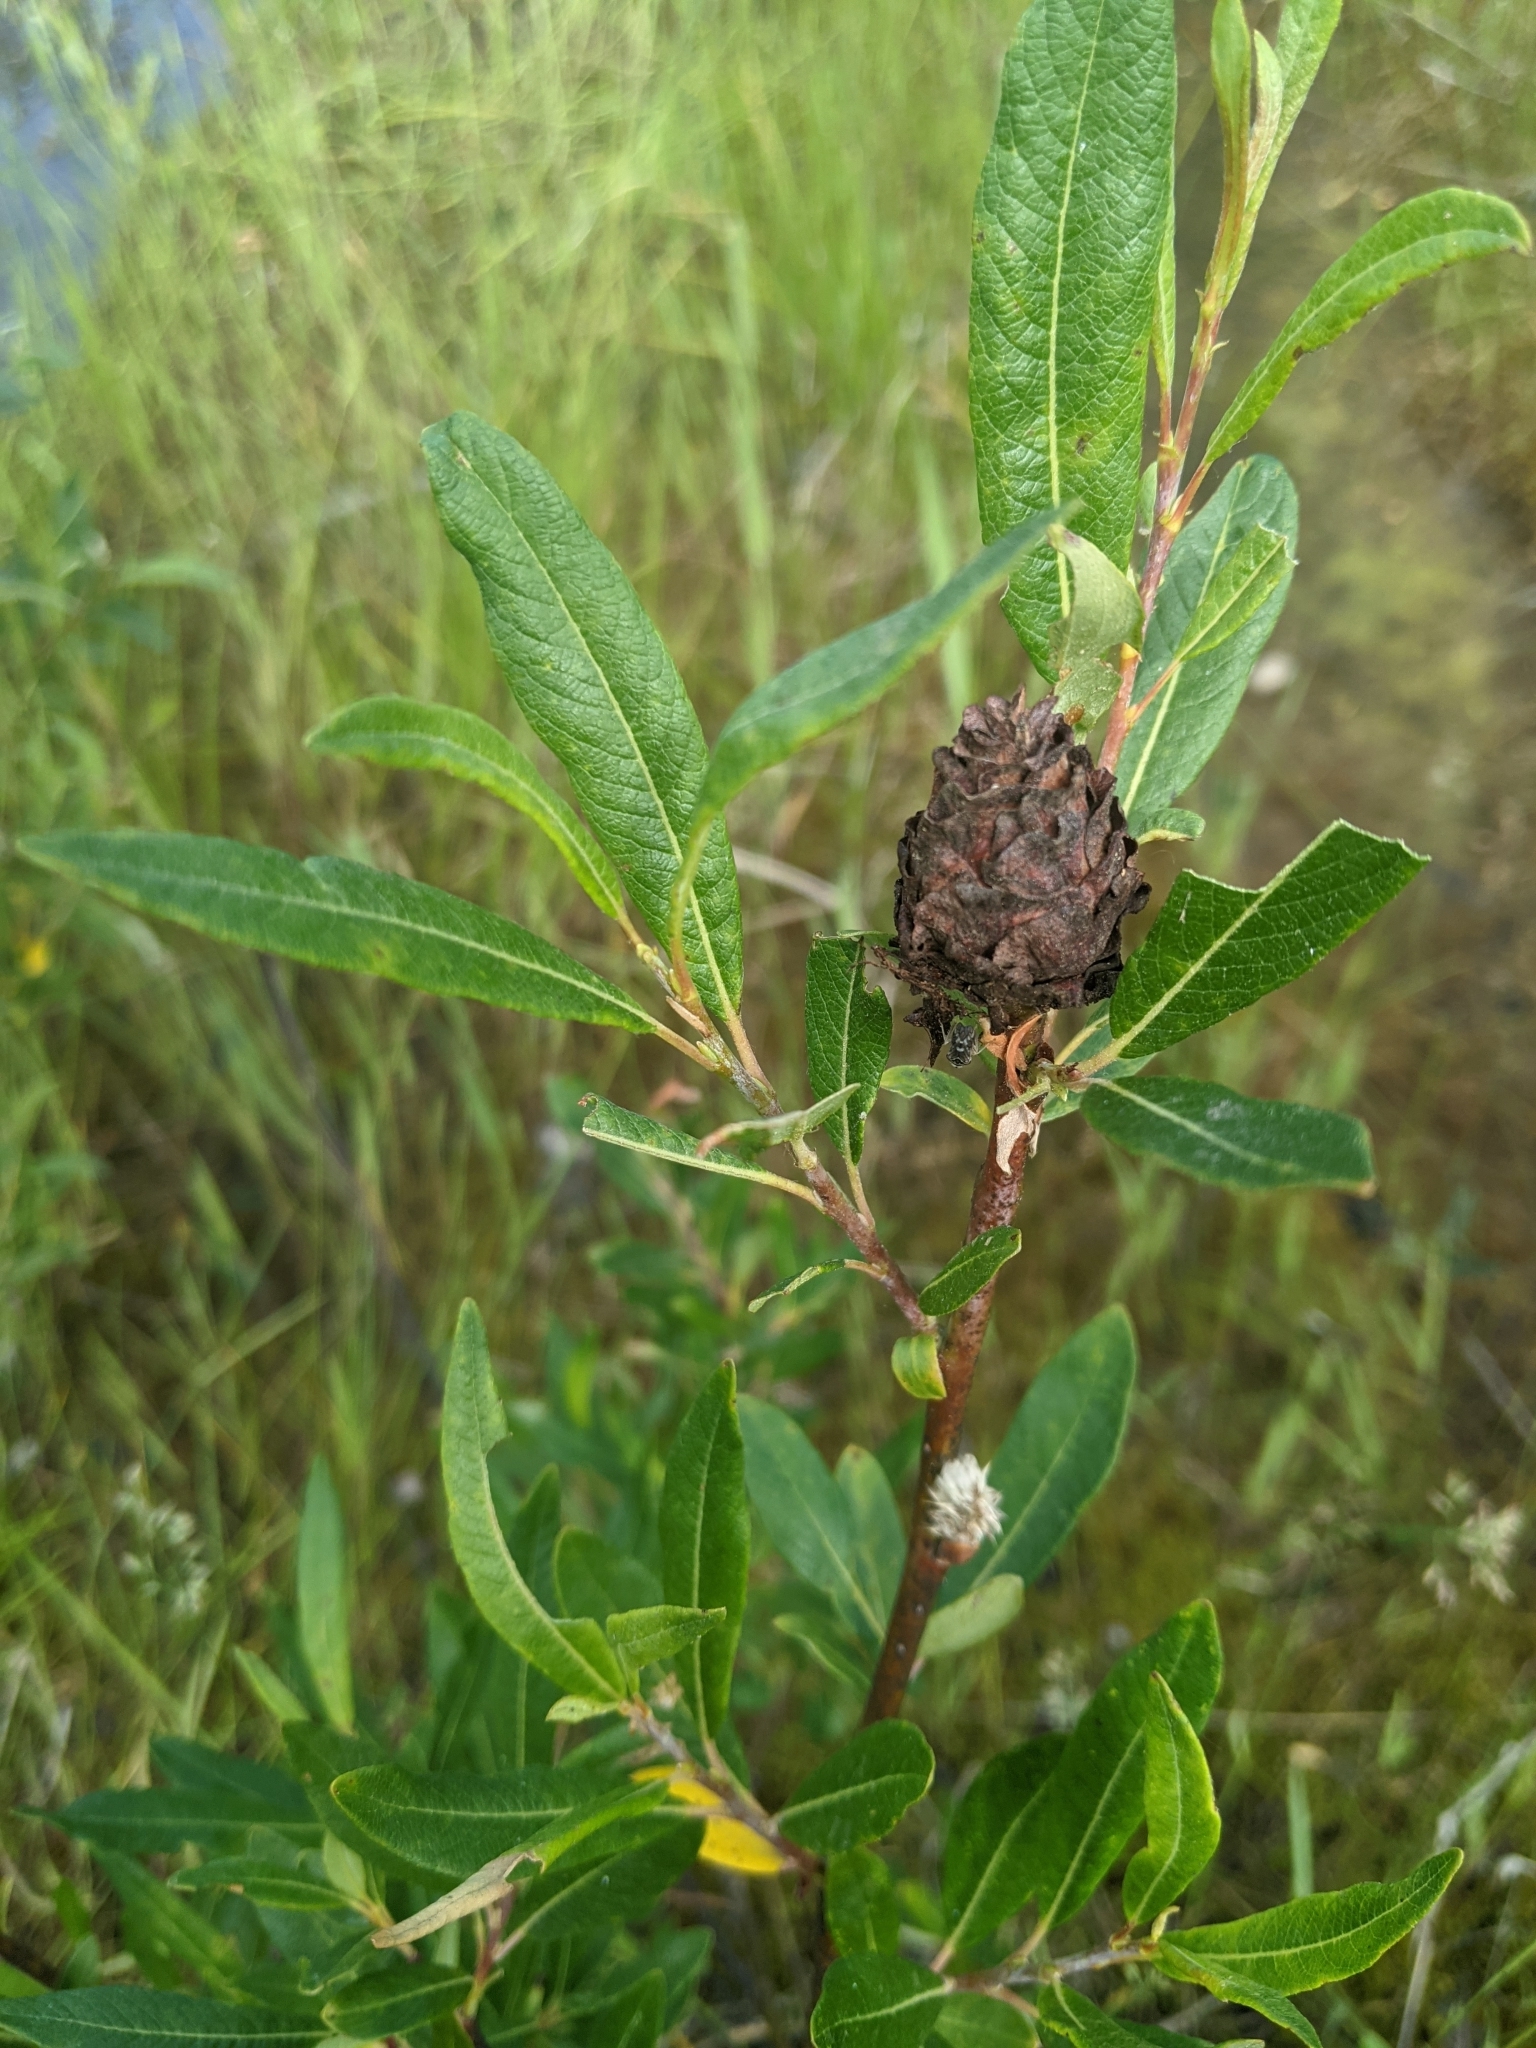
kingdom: Animalia
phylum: Arthropoda
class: Insecta
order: Diptera
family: Cecidomyiidae
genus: Rabdophaga
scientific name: Rabdophaga strobiloides
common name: Willow pinecone gall midge
